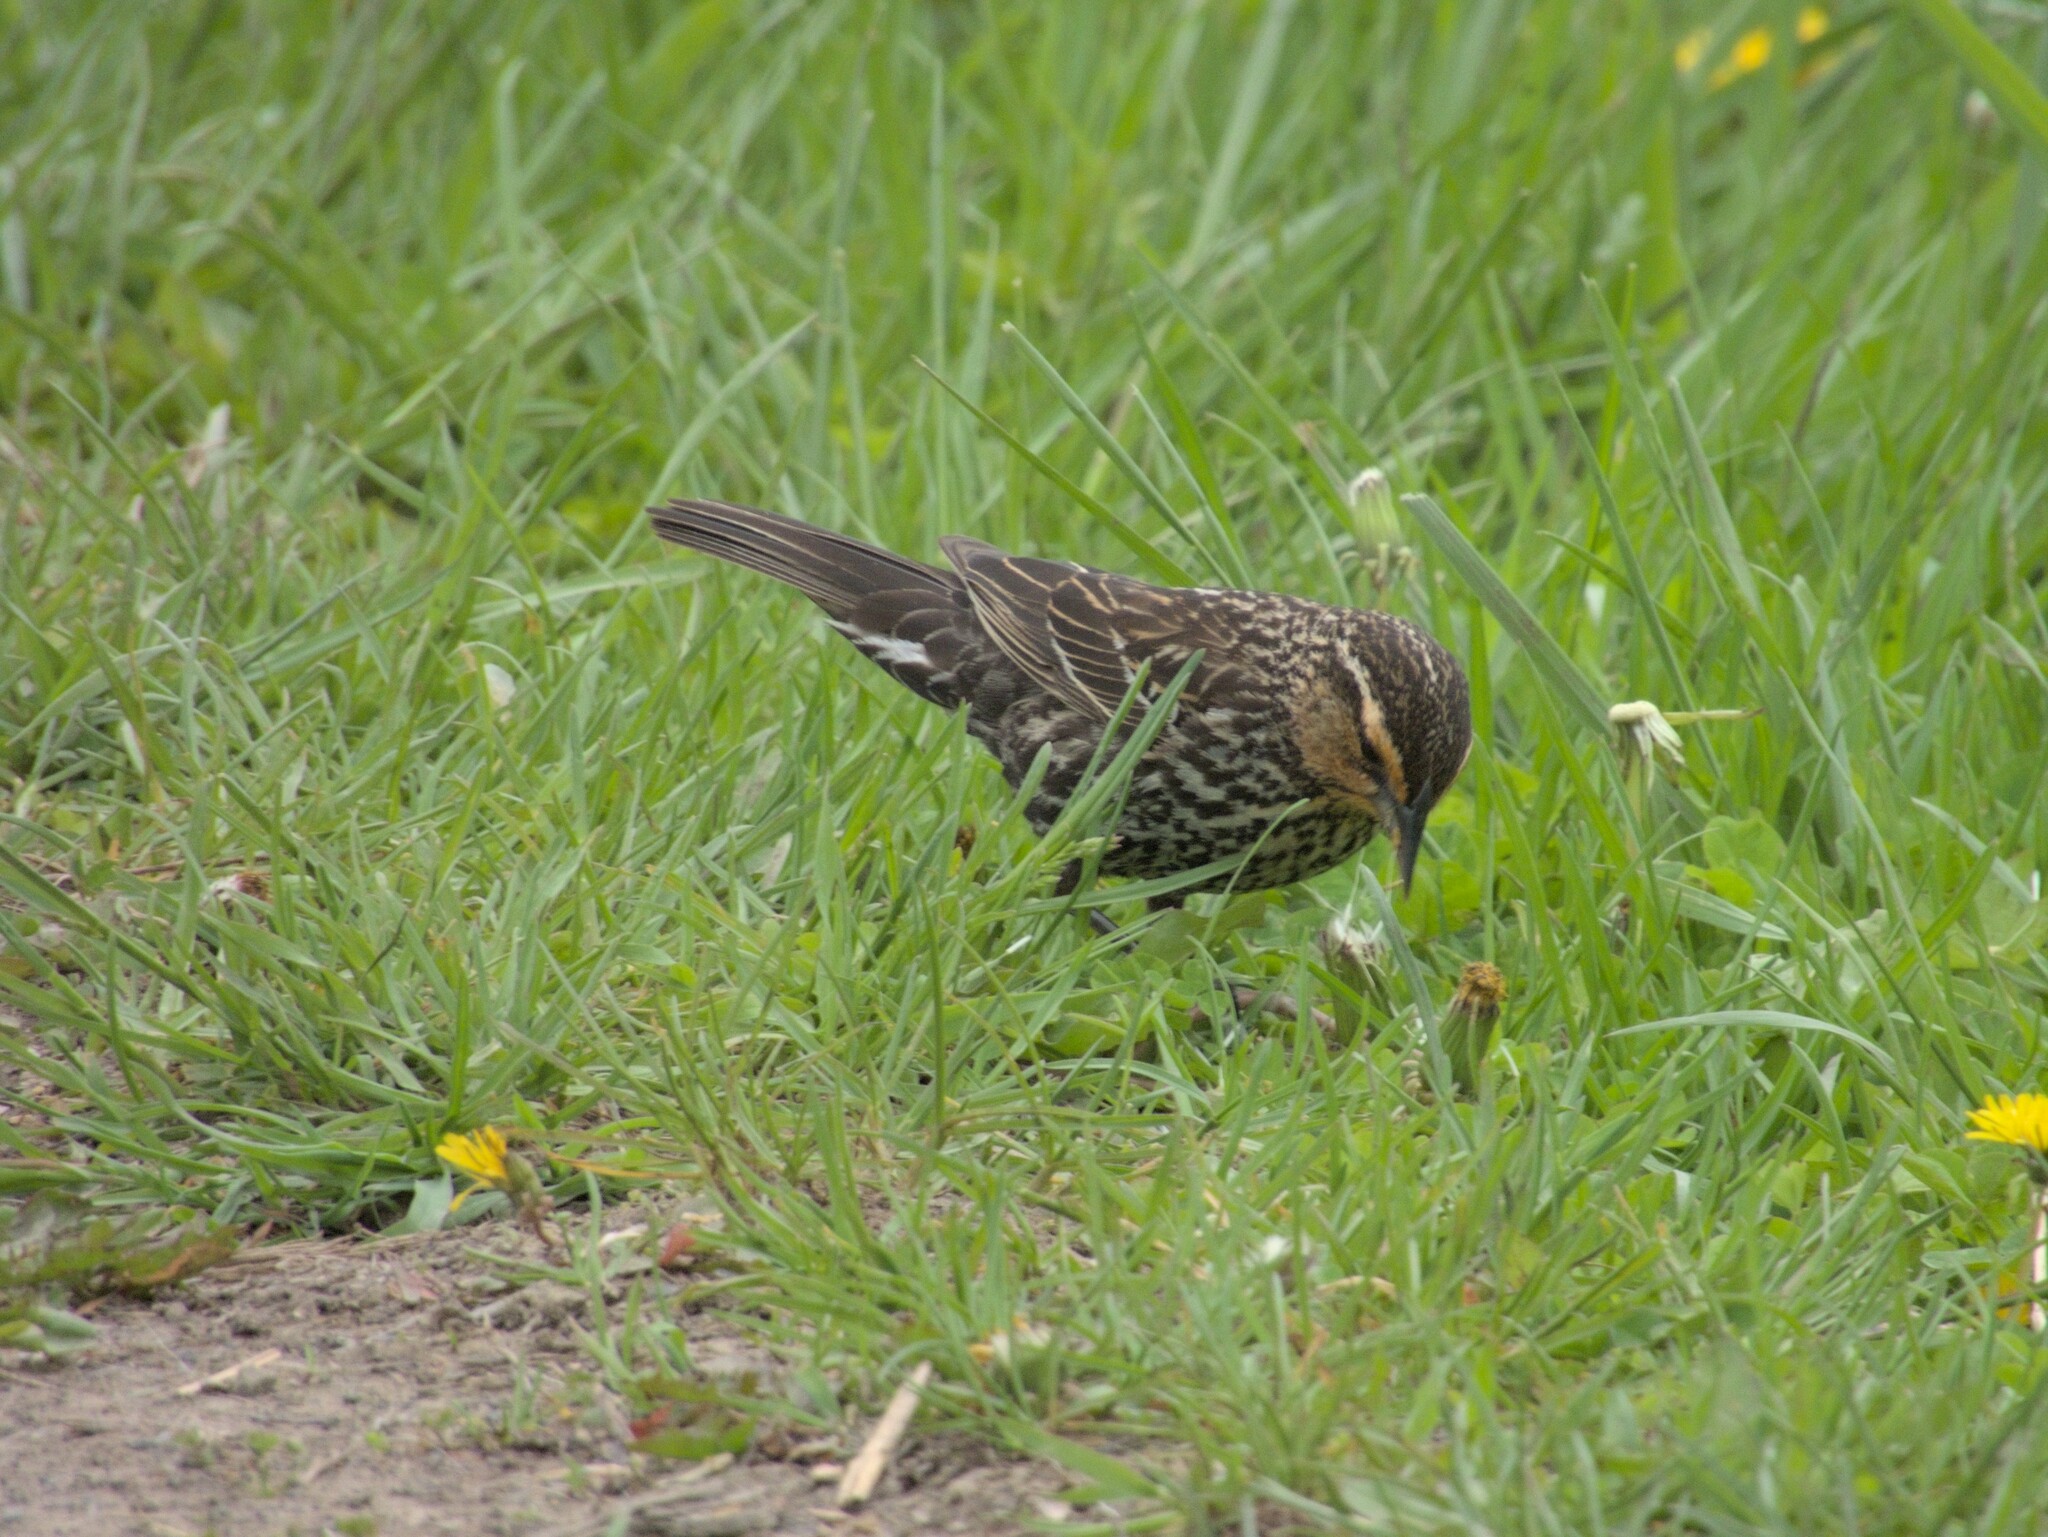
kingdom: Animalia
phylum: Chordata
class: Aves
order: Passeriformes
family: Icteridae
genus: Agelaius
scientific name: Agelaius phoeniceus
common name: Red-winged blackbird
